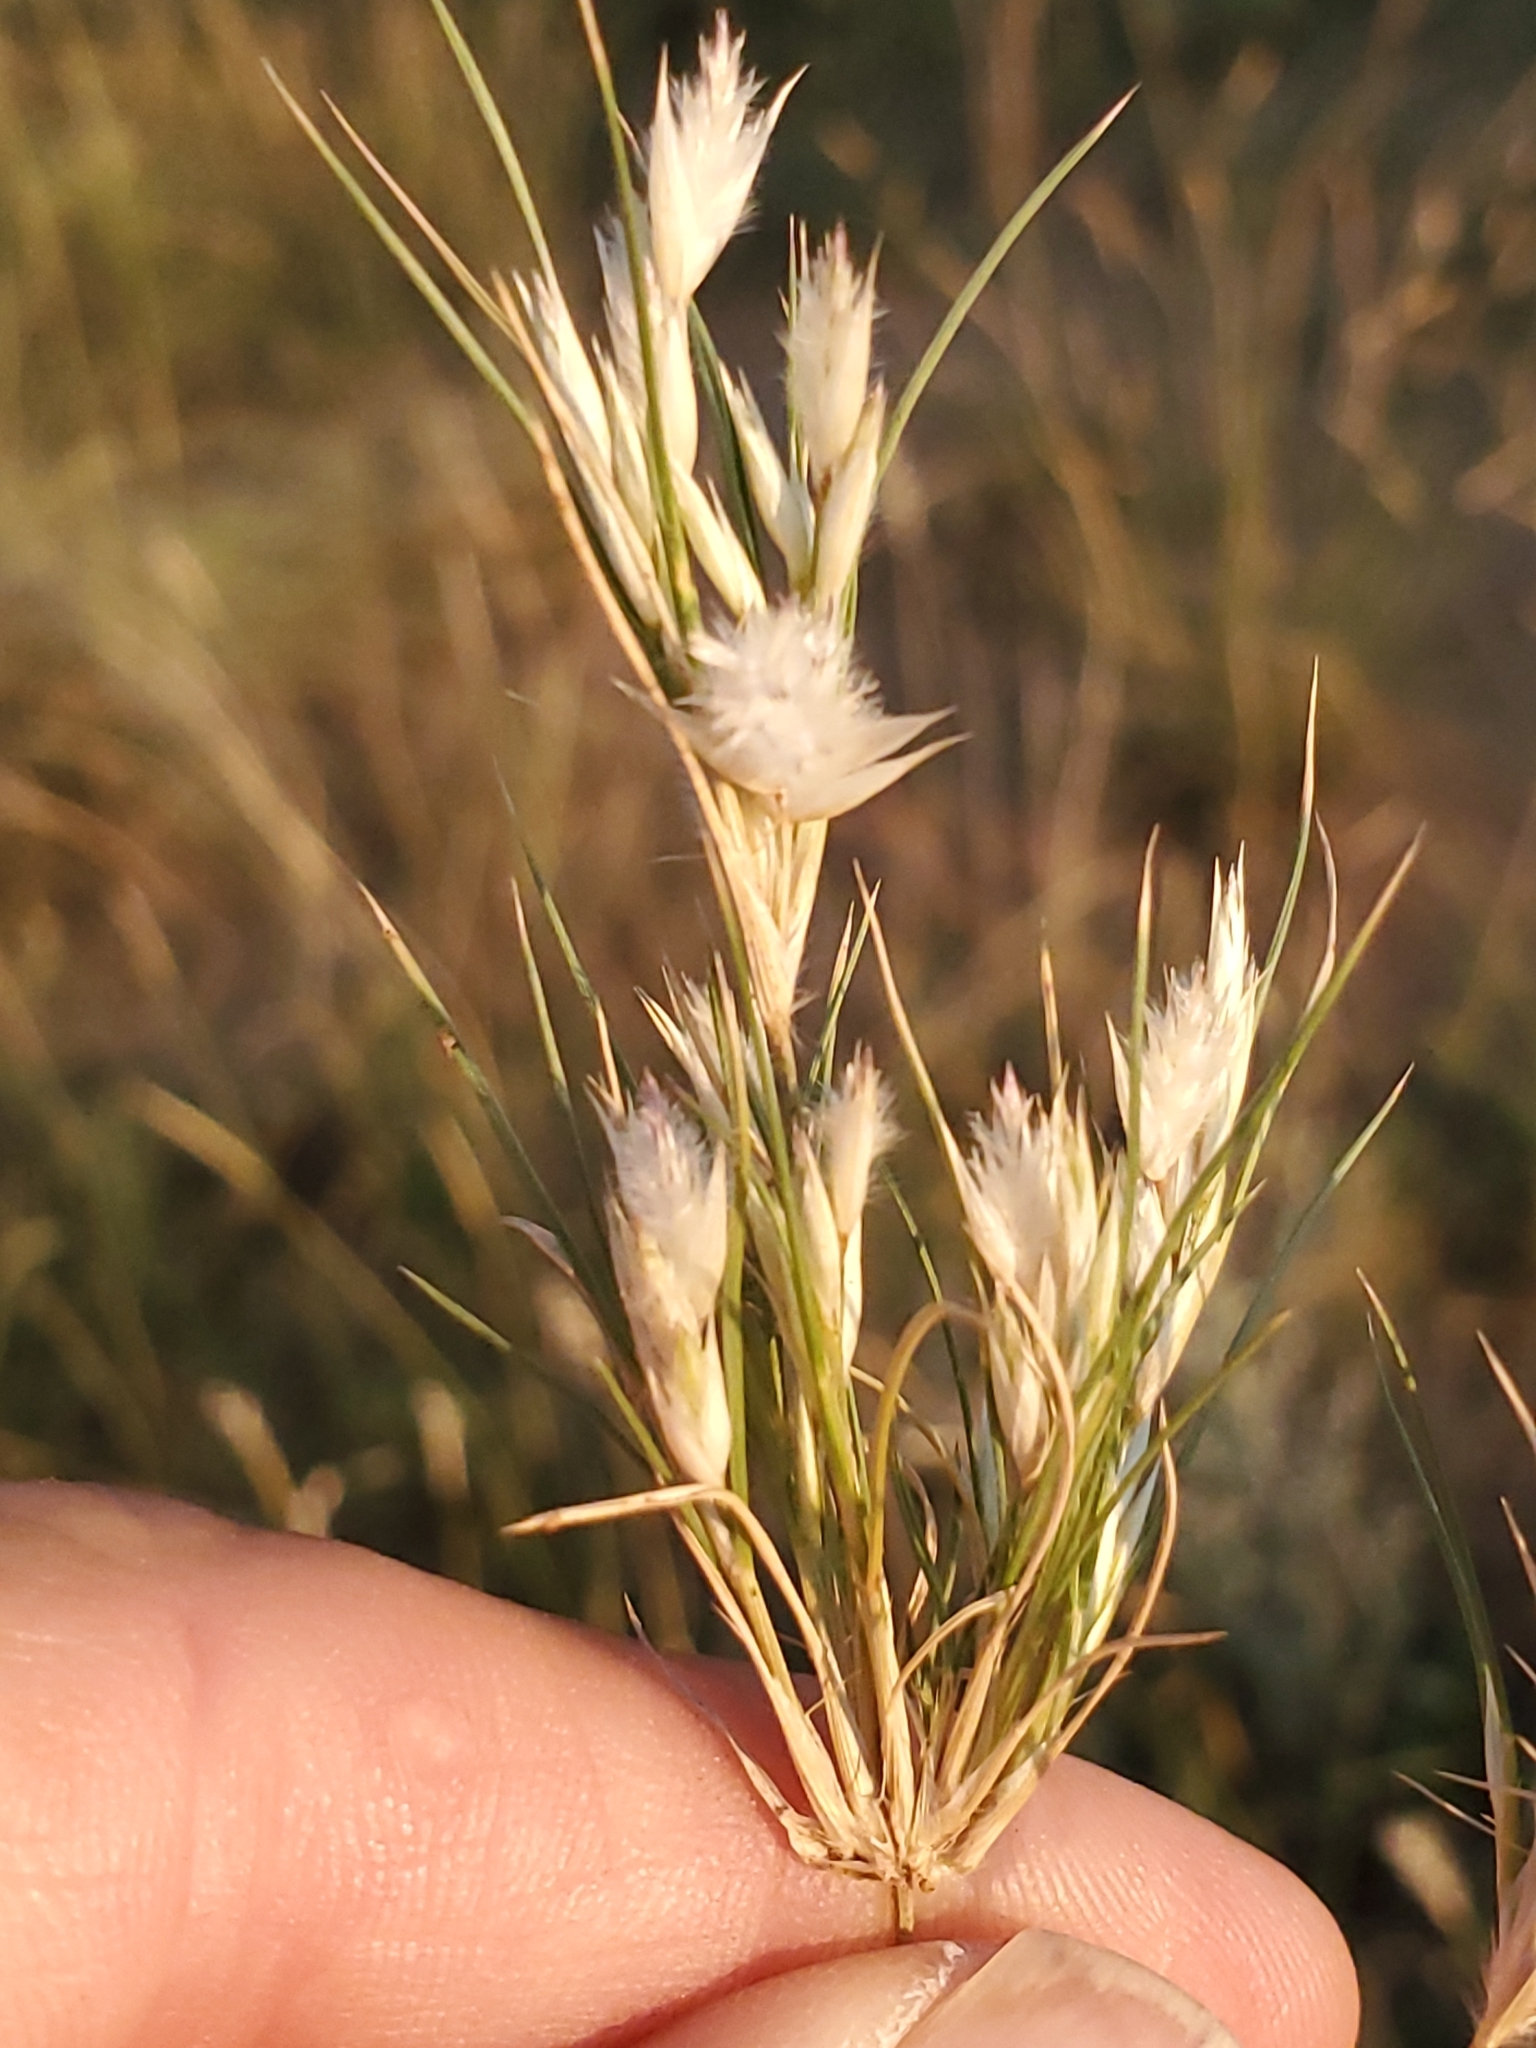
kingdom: Plantae
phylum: Tracheophyta
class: Liliopsida
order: Poales
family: Poaceae
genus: Dasyochloa
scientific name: Dasyochloa pulchella
